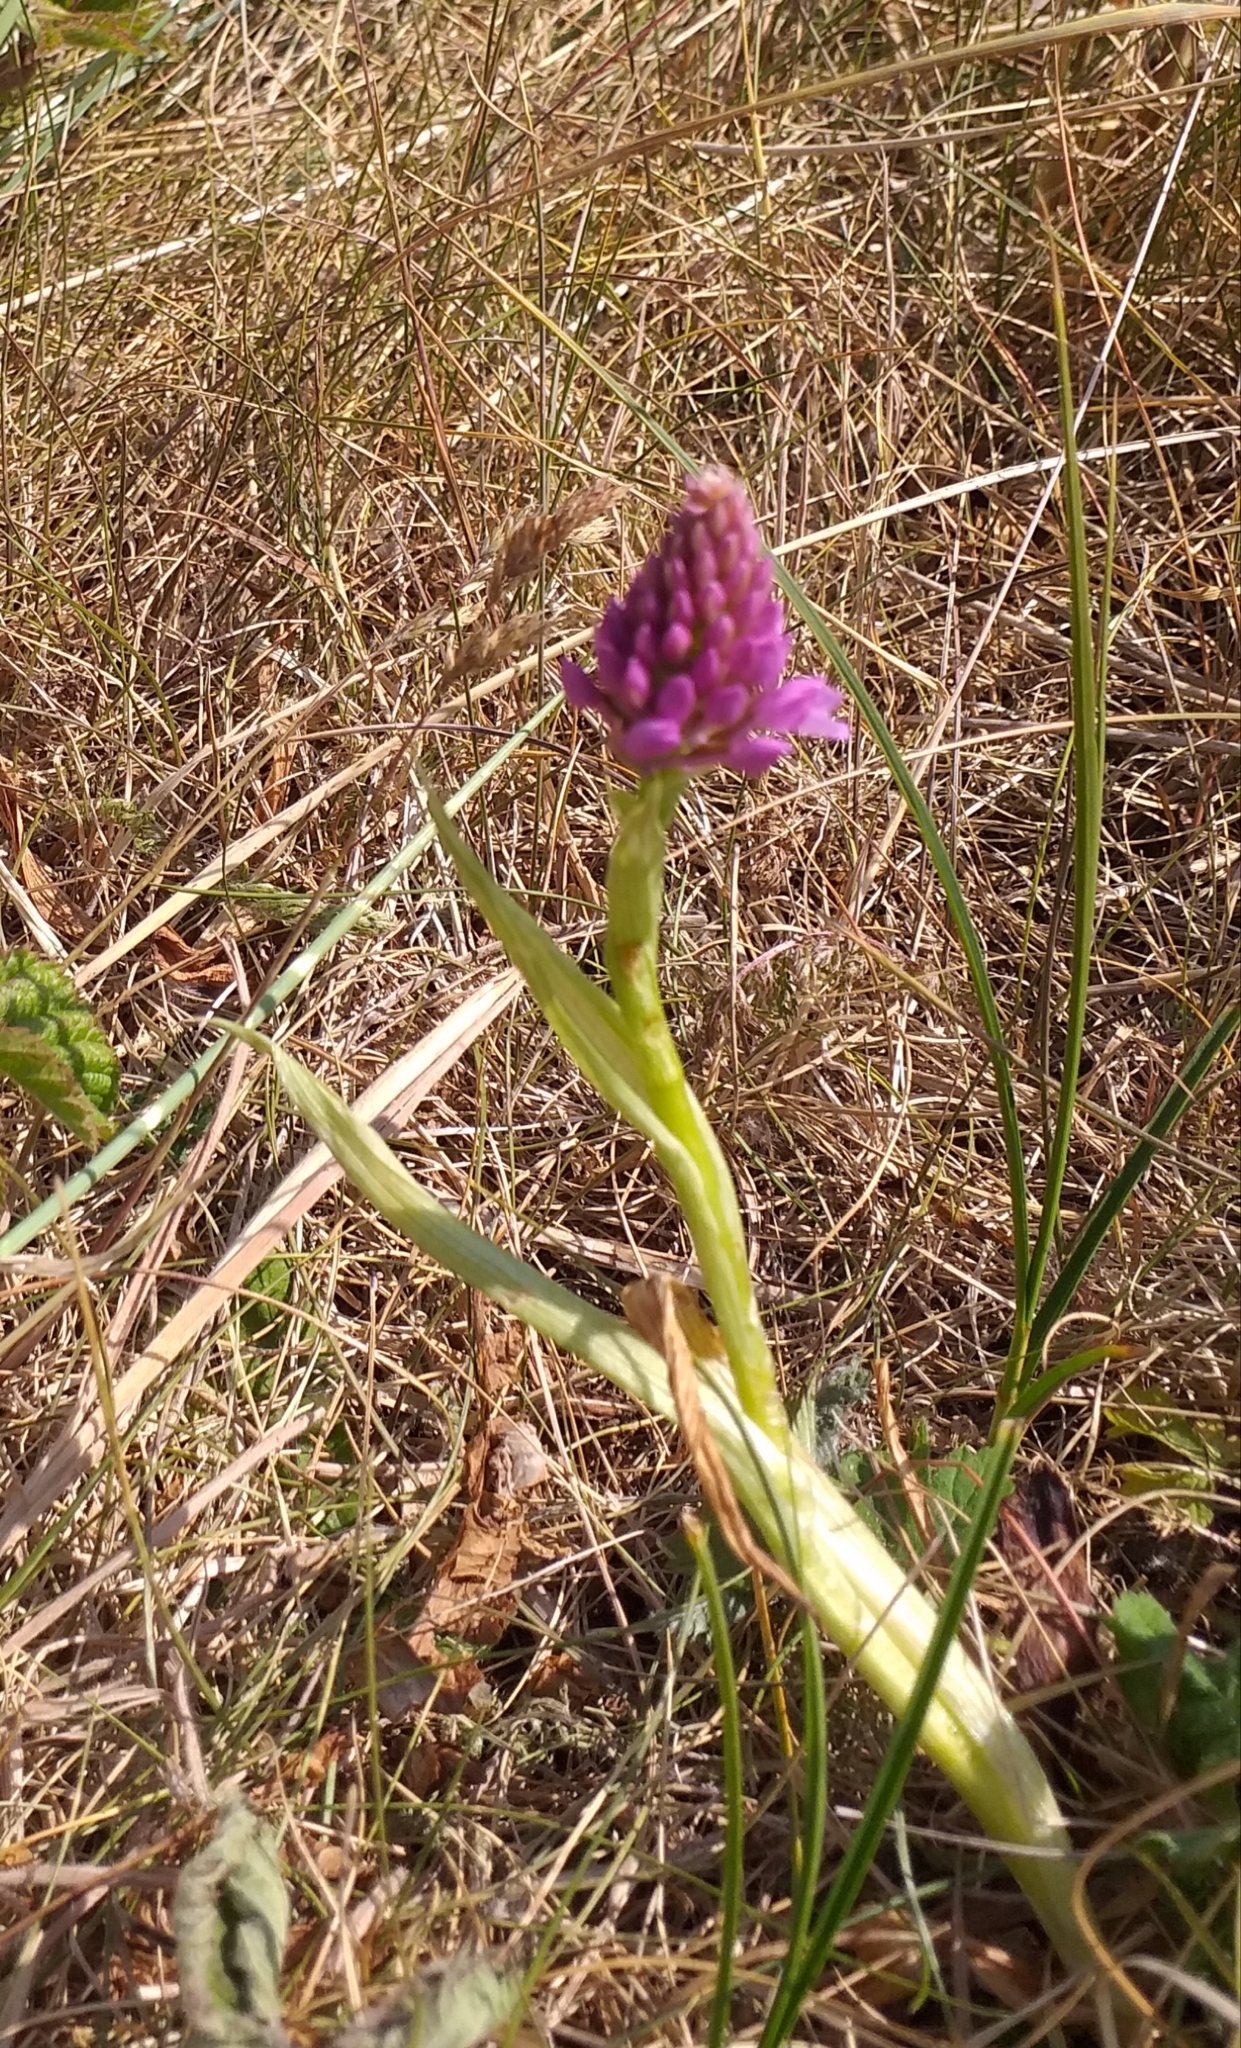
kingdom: Plantae
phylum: Tracheophyta
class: Liliopsida
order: Asparagales
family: Orchidaceae
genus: Anacamptis
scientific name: Anacamptis pyramidalis
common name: Pyramidal orchid
